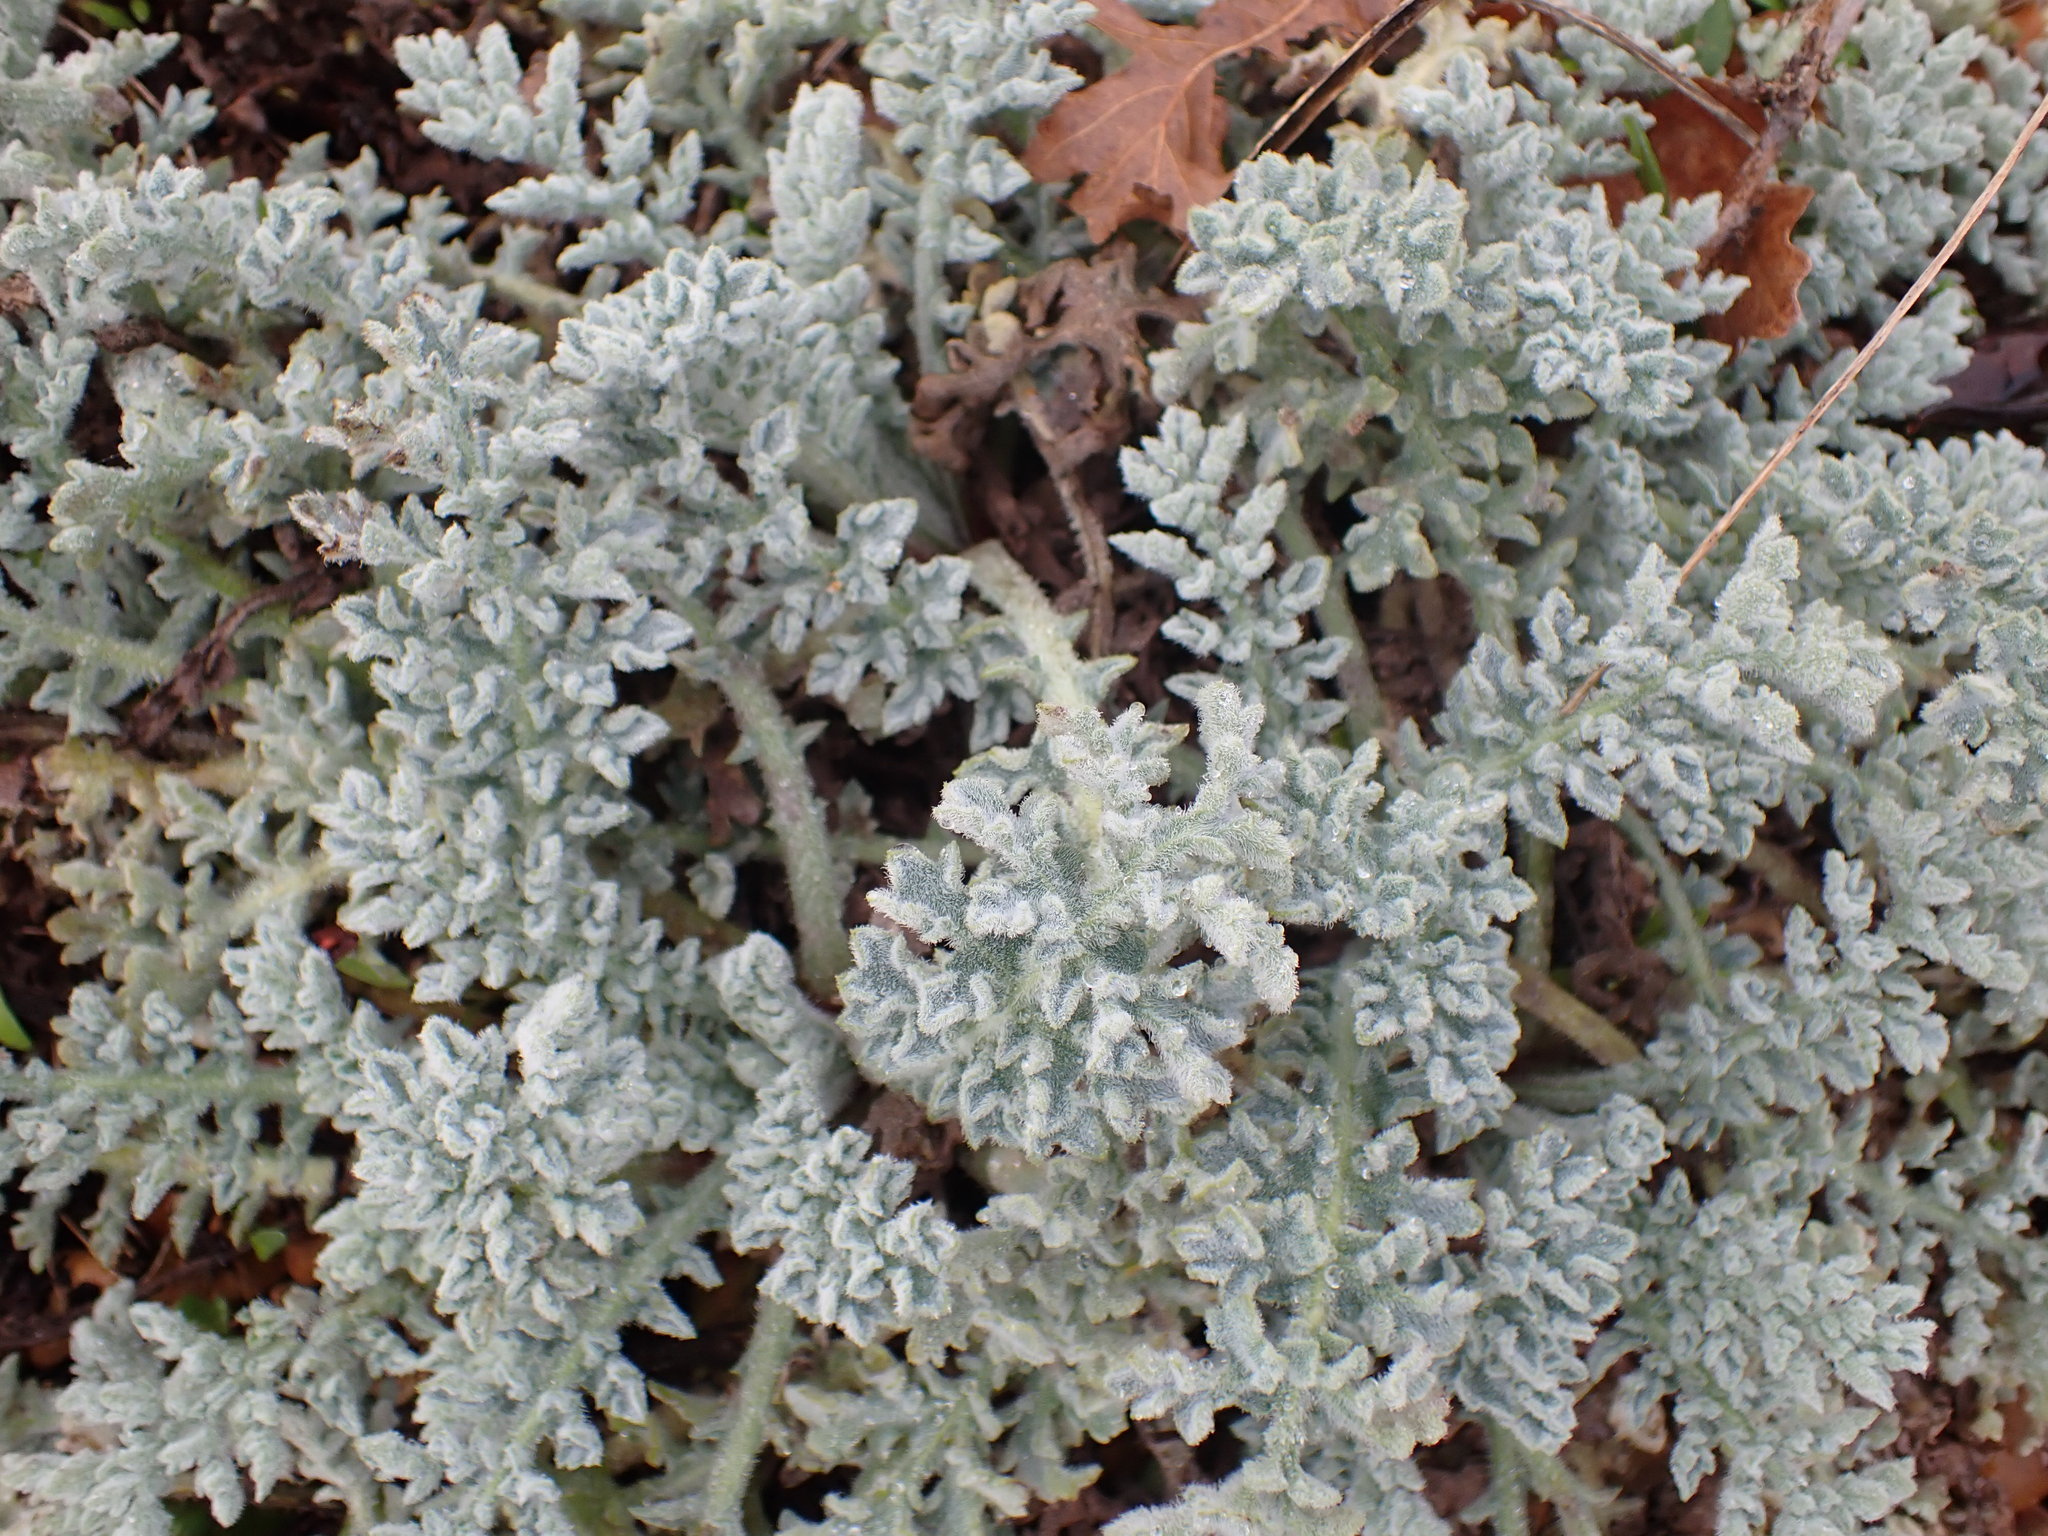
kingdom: Plantae
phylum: Tracheophyta
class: Magnoliopsida
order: Ranunculales
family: Papaveraceae
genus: Glaucium
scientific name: Glaucium flavum
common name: Yellow horned-poppy
